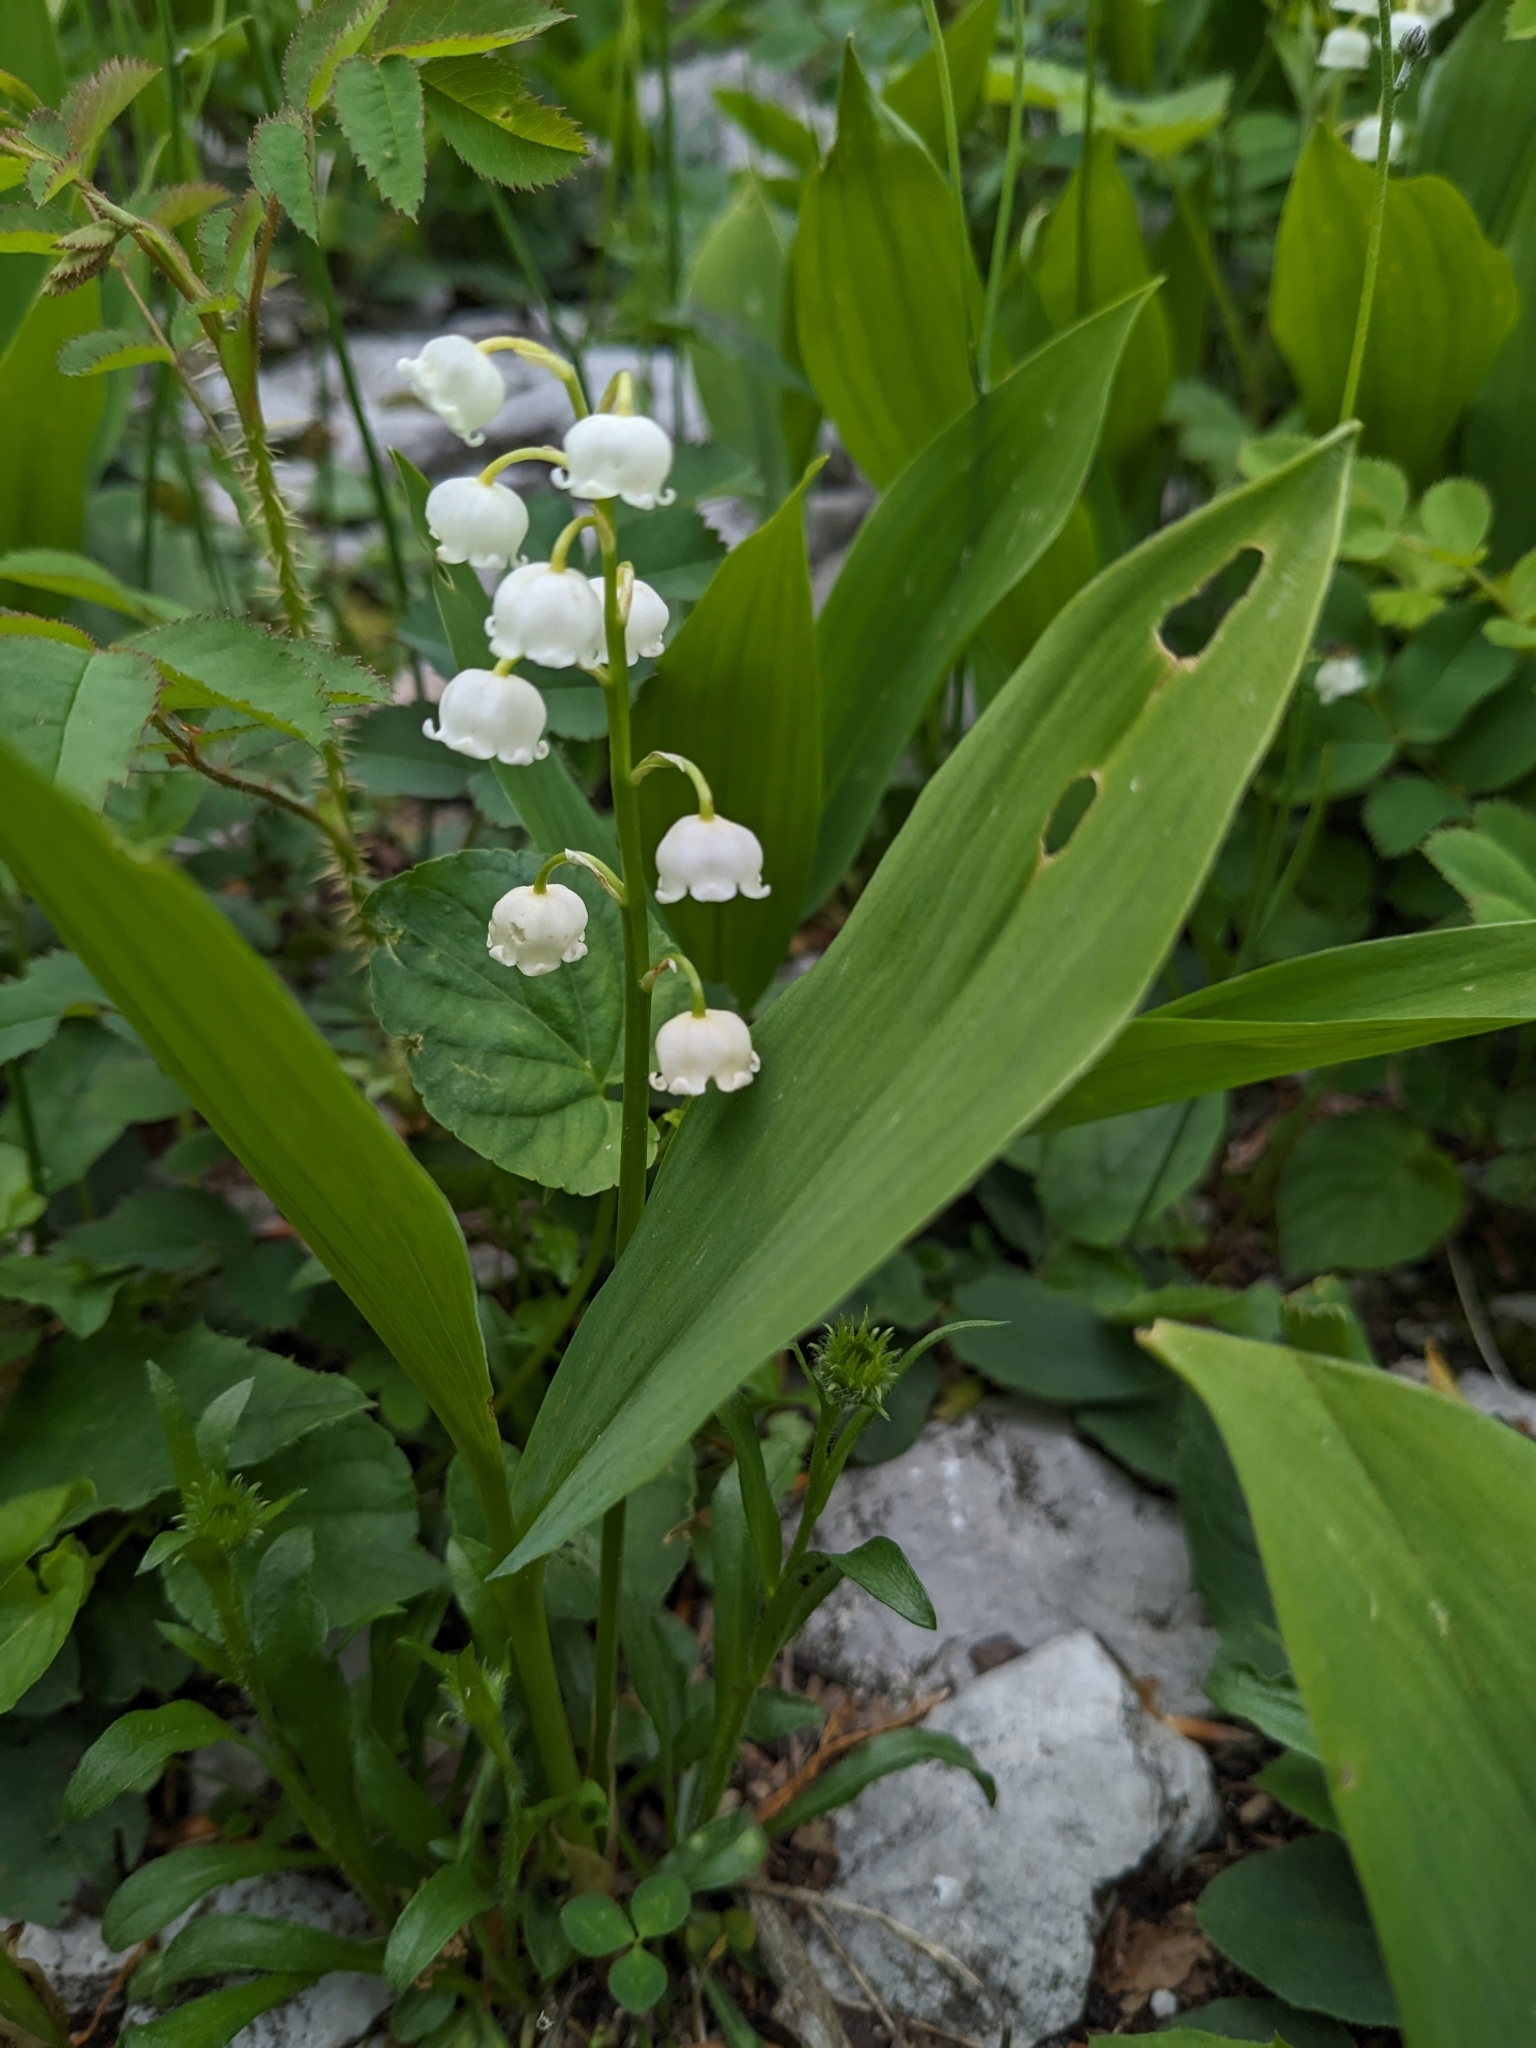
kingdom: Plantae
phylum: Tracheophyta
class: Liliopsida
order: Asparagales
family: Asparagaceae
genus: Convallaria
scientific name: Convallaria majalis
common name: Lily-of-the-valley
